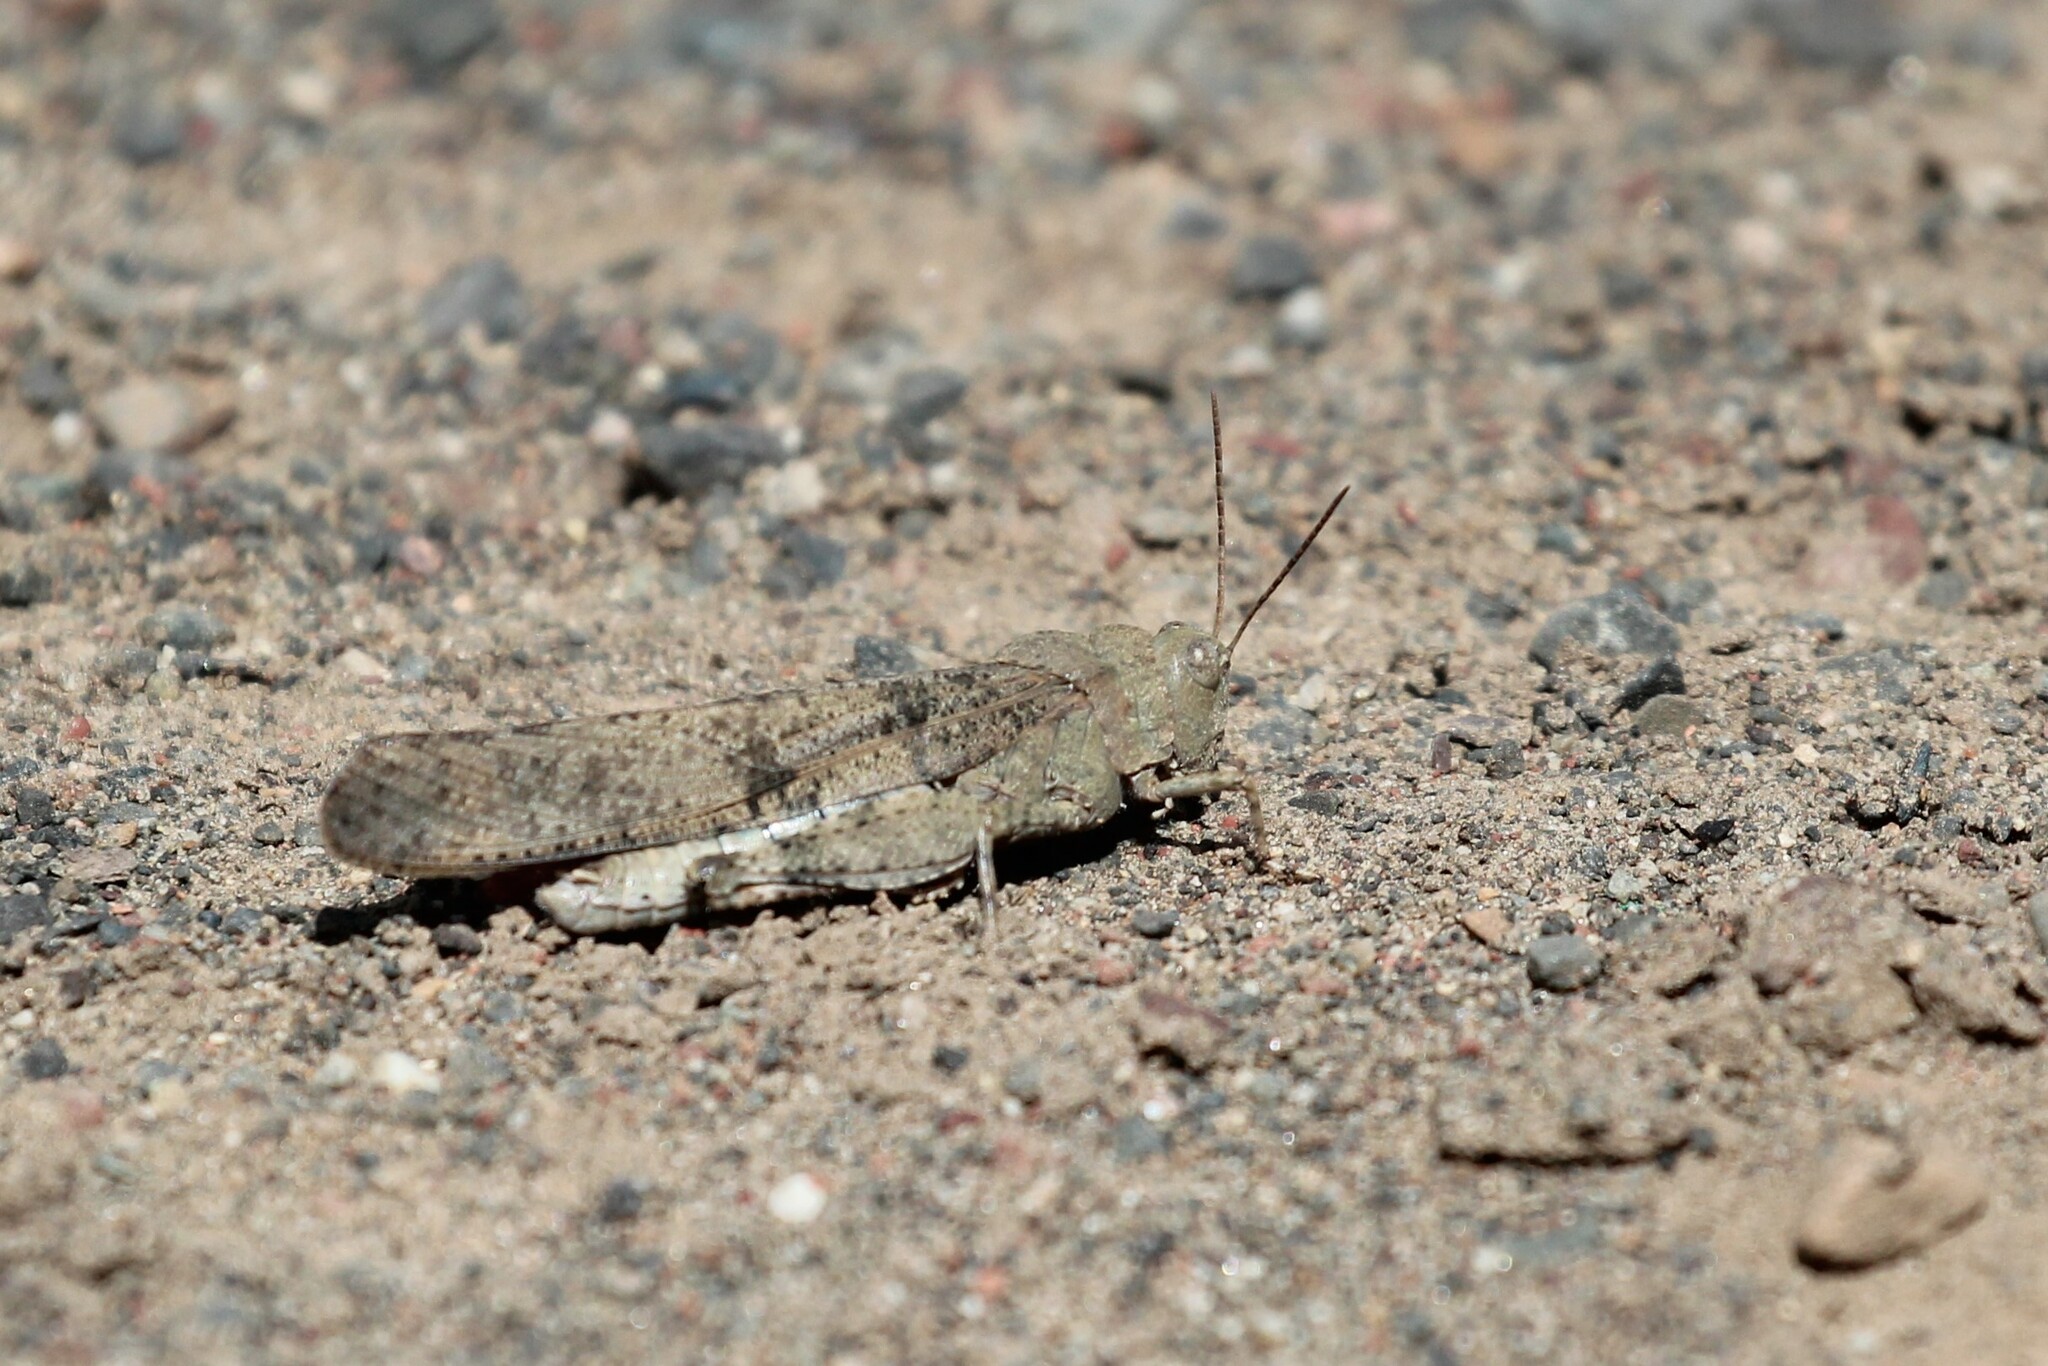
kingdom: Animalia
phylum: Arthropoda
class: Insecta
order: Orthoptera
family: Acrididae
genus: Dissosteira
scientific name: Dissosteira carolina
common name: Carolina grasshopper
